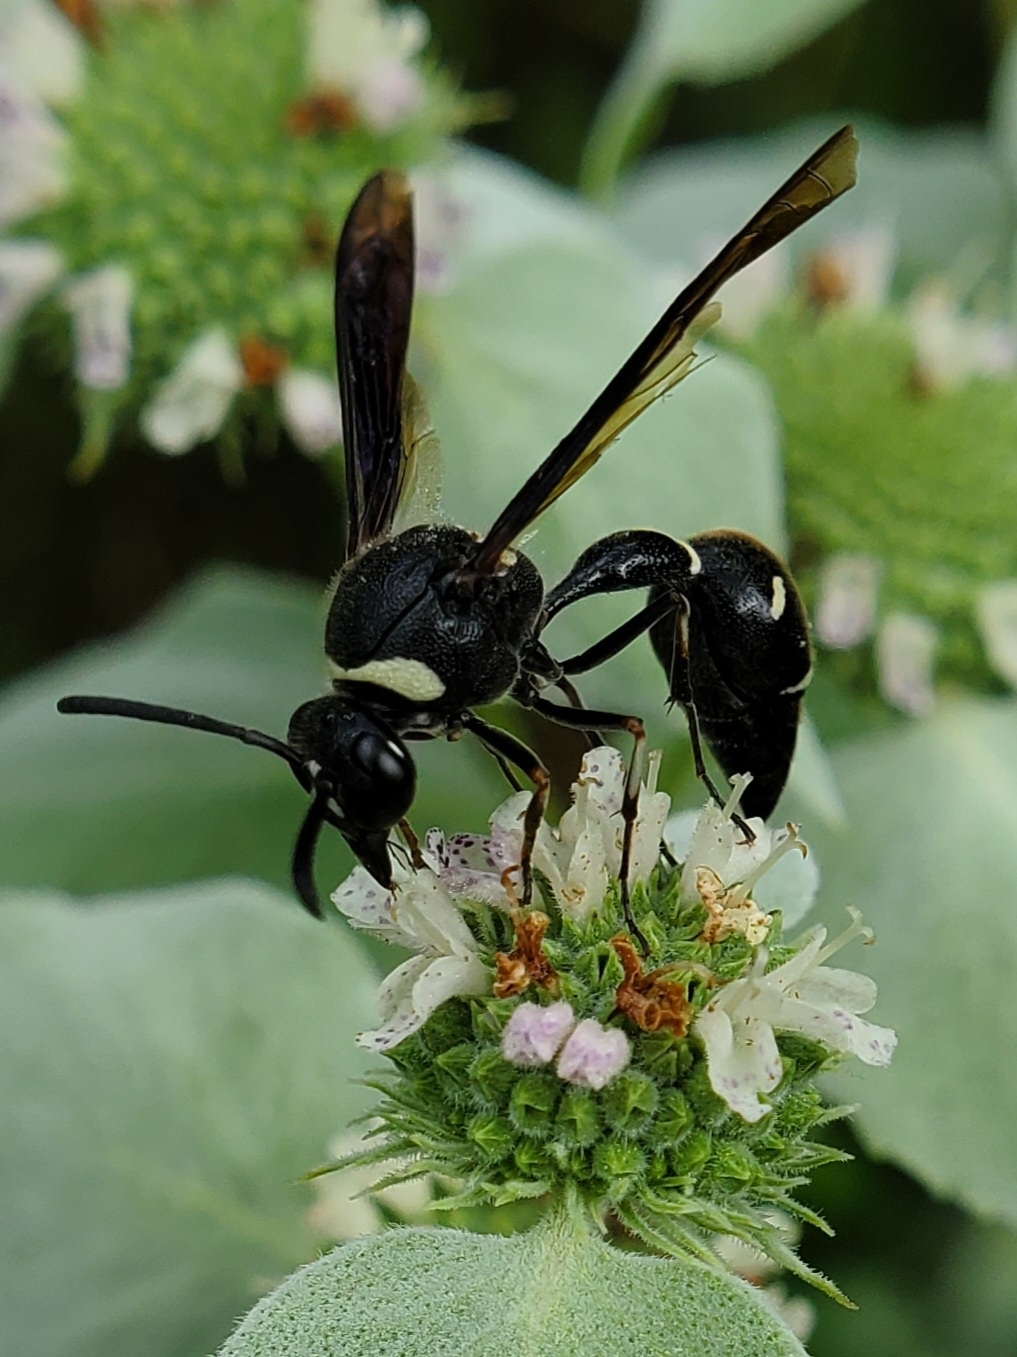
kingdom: Animalia
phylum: Arthropoda
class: Insecta
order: Hymenoptera
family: Vespidae
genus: Eumenes
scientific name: Eumenes fraternus
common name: Fraternal potter wasp
